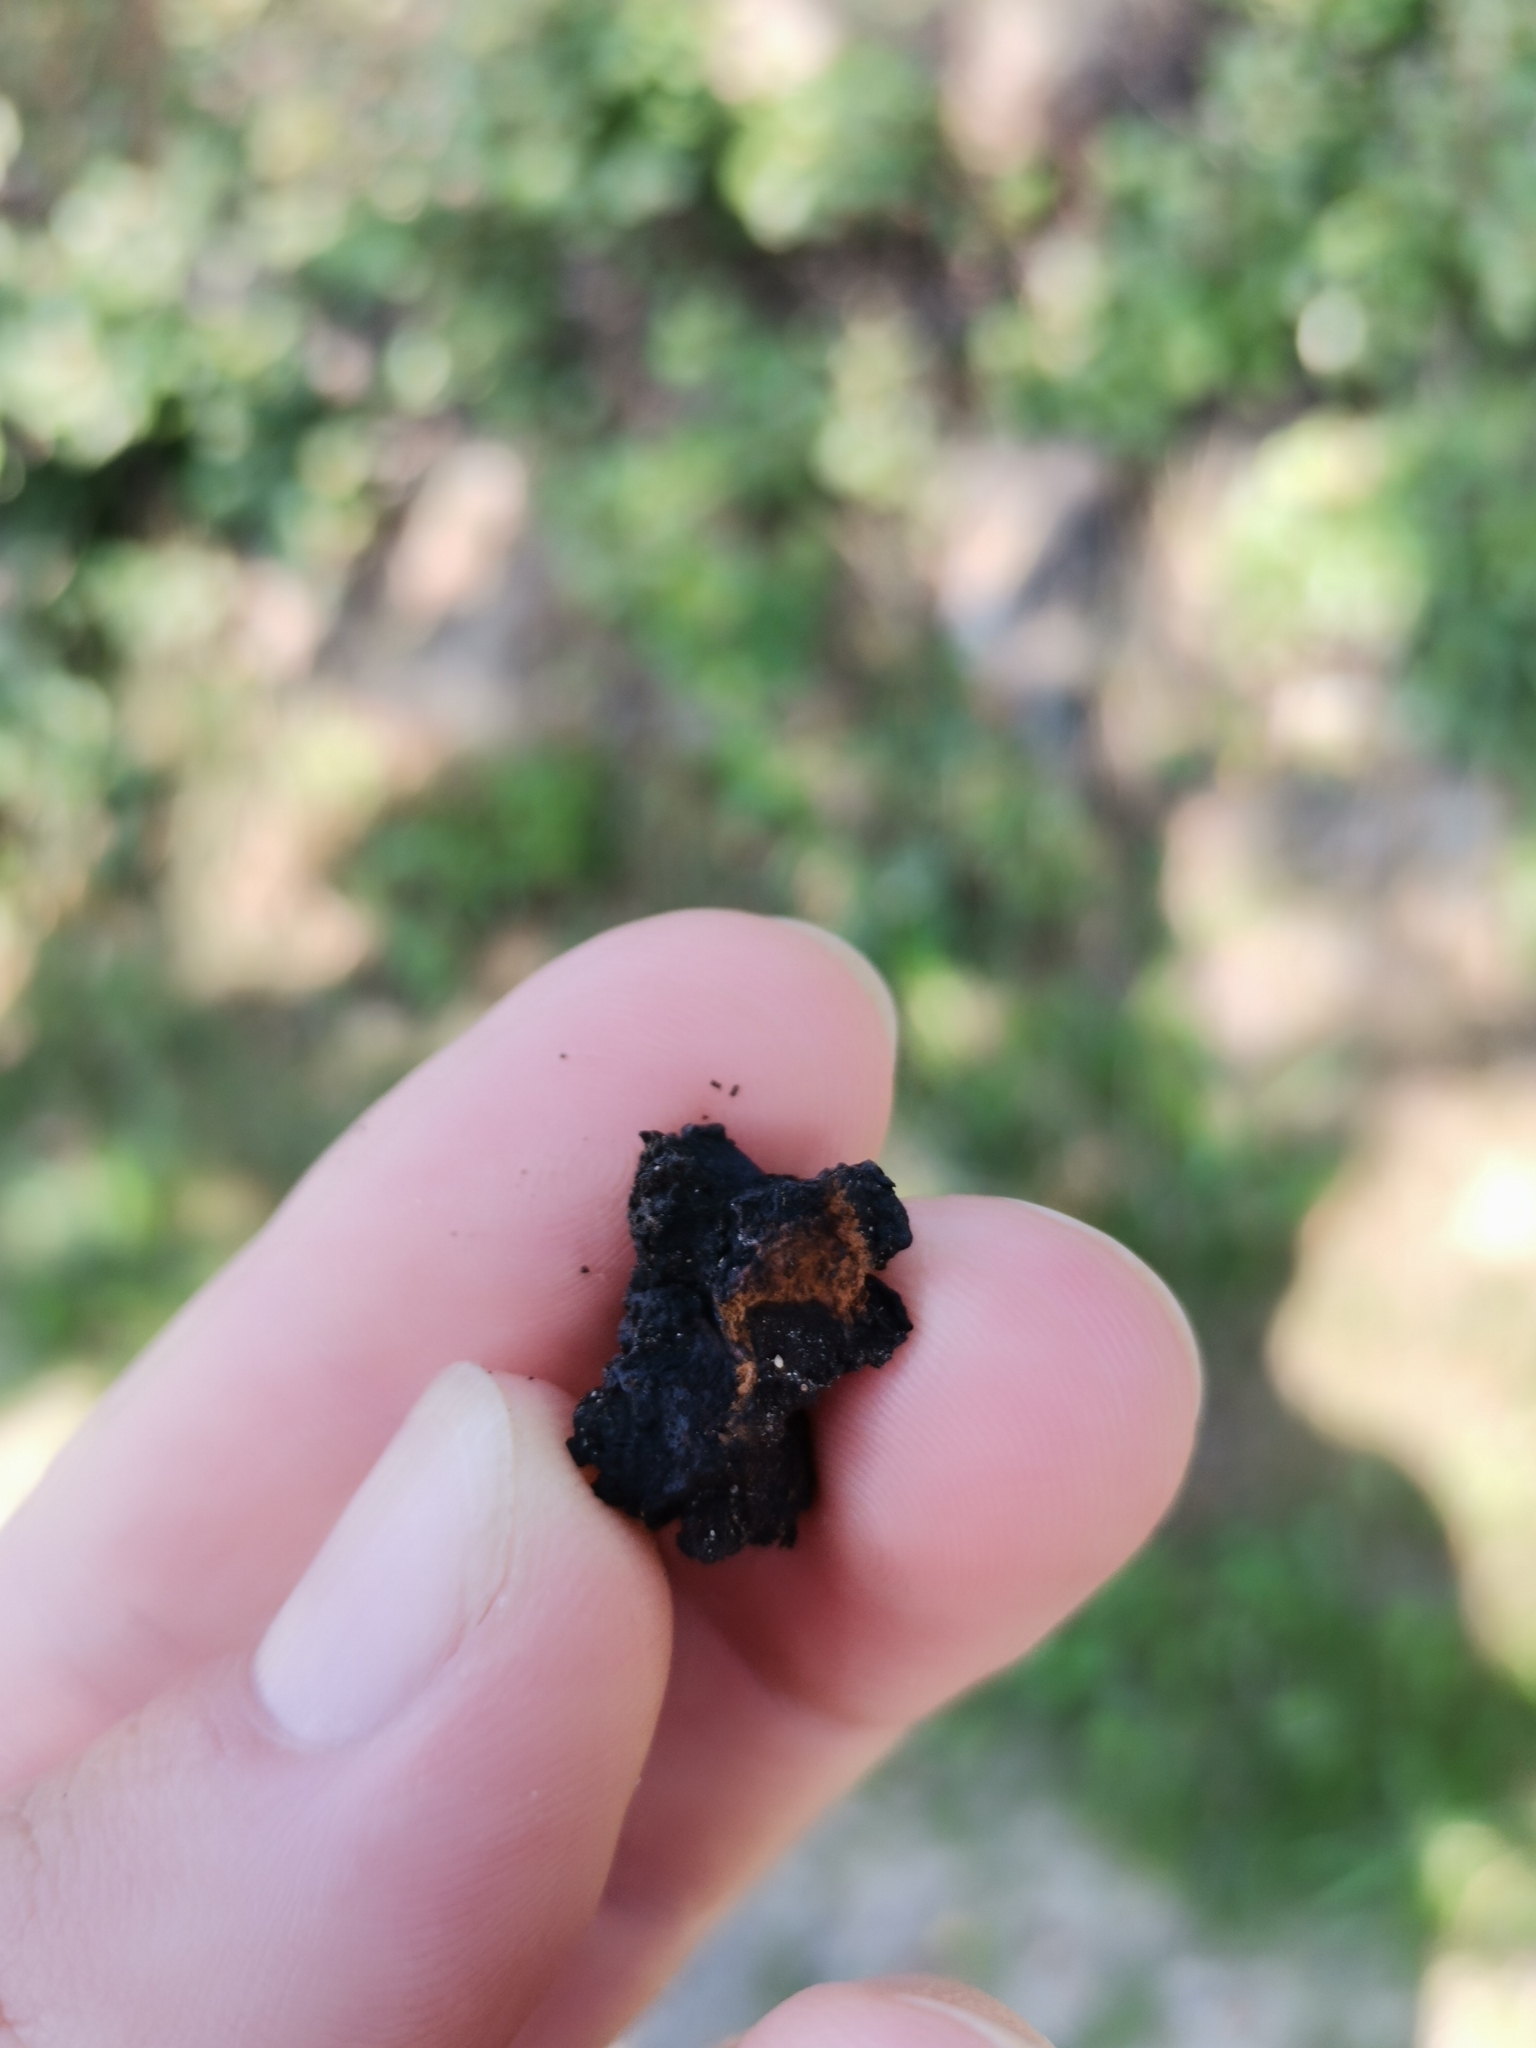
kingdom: Fungi
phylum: Basidiomycota
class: Agaricomycetes
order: Hymenochaetales
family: Hymenochaetaceae
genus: Inonotus
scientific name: Inonotus obliquus
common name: Chaga
